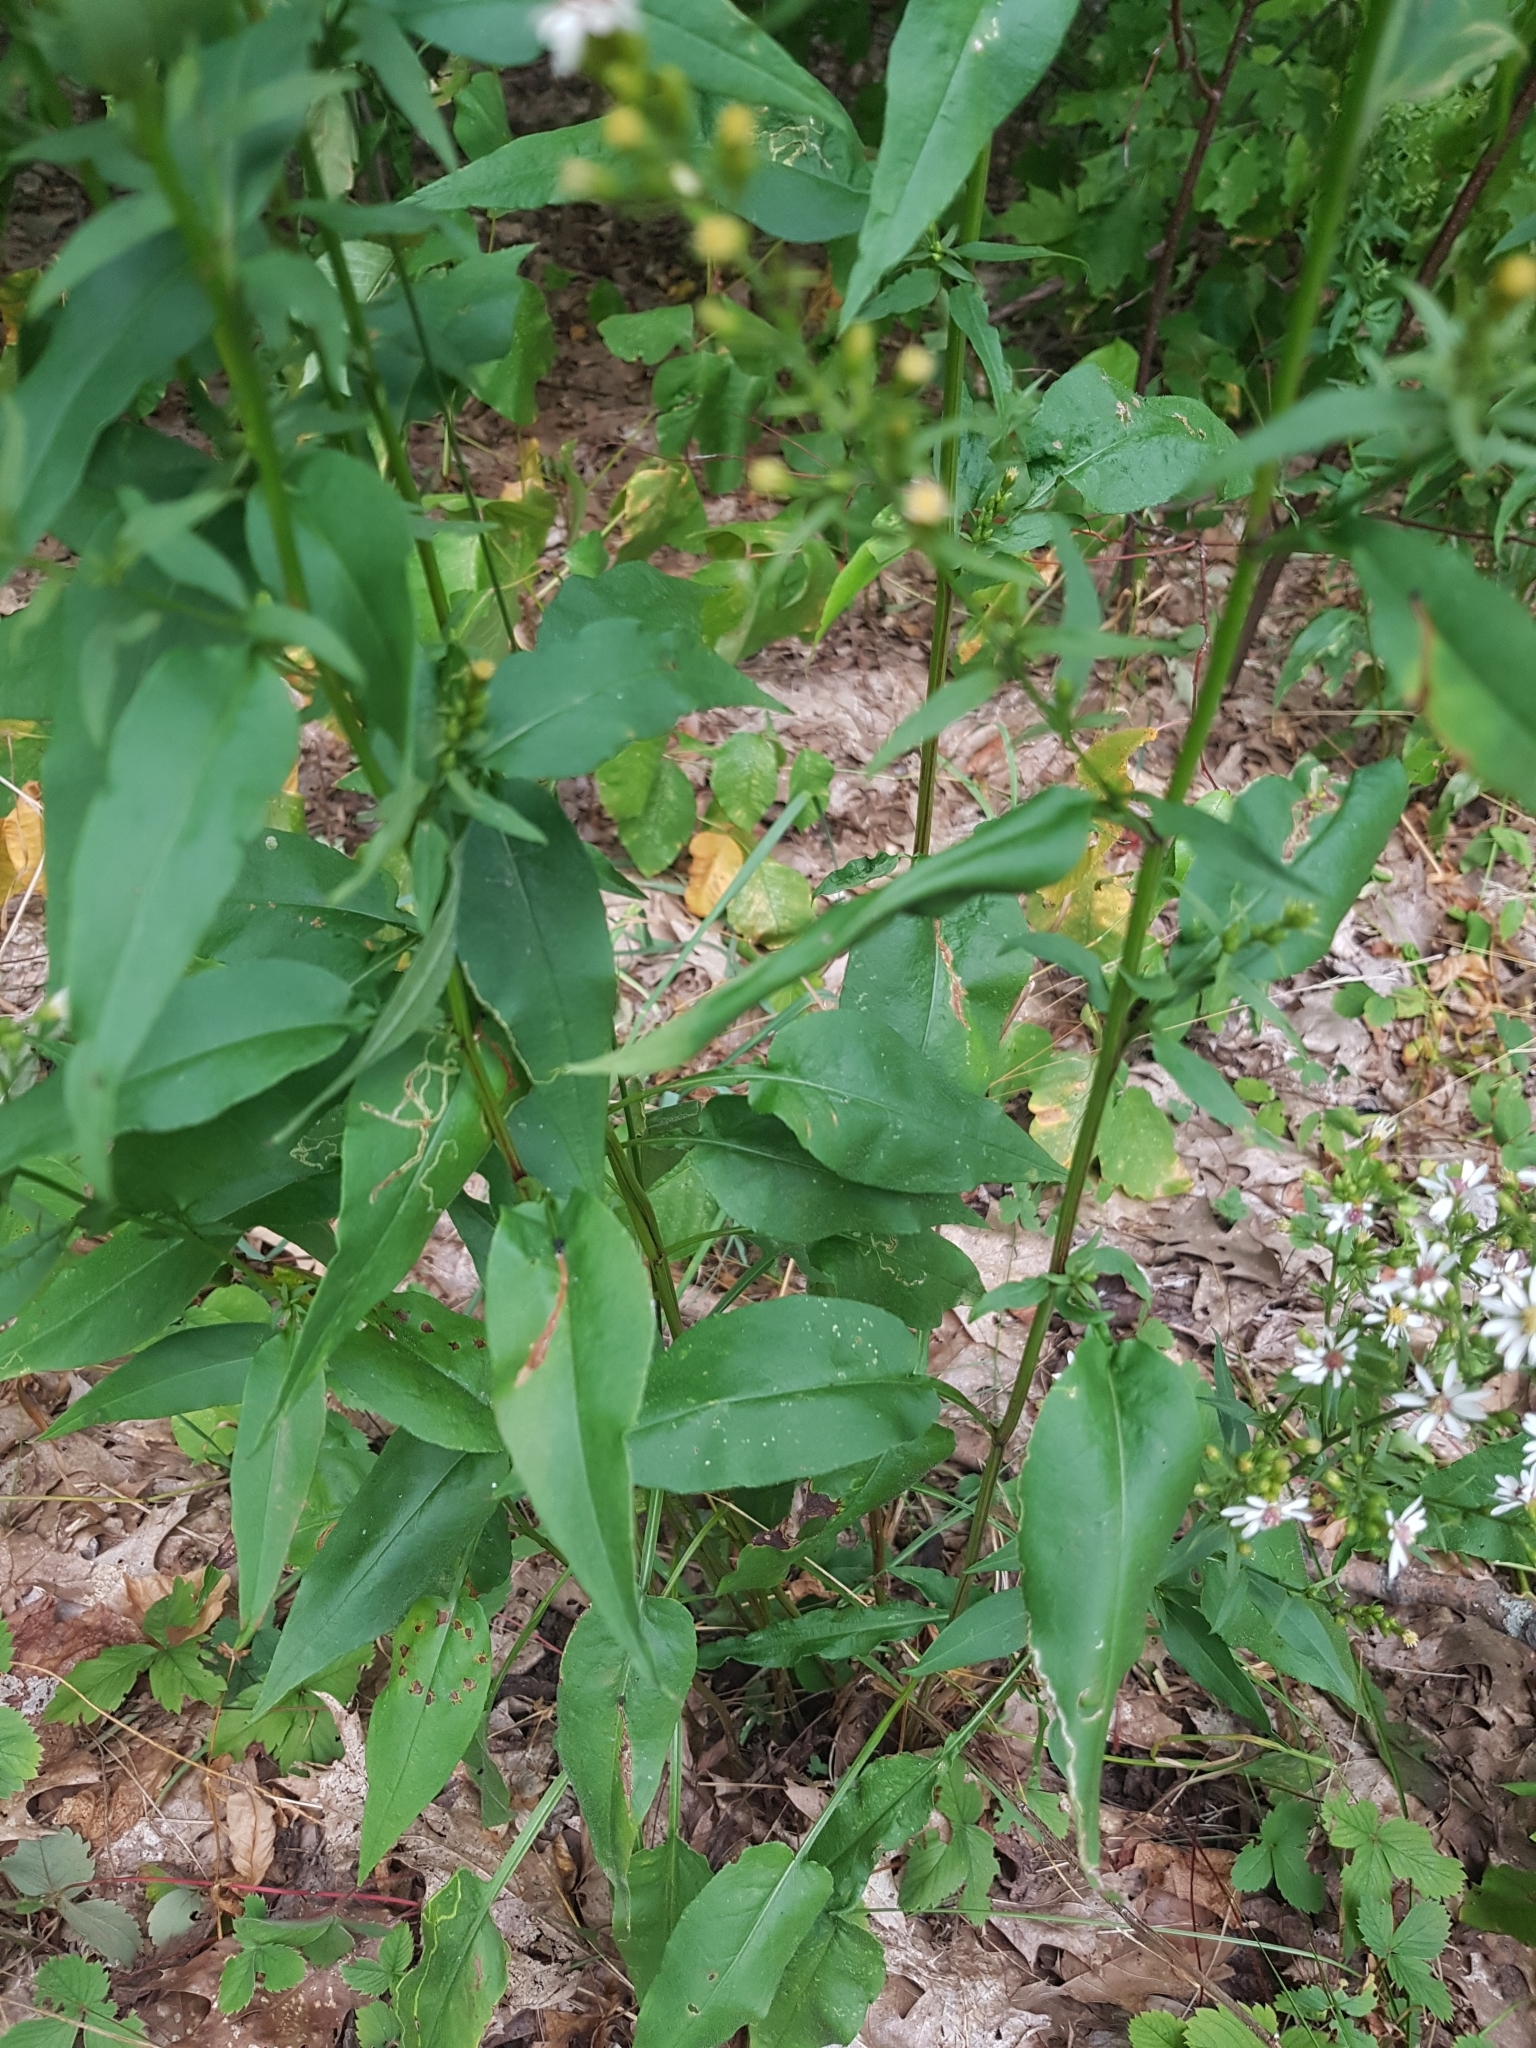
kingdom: Plantae
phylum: Tracheophyta
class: Magnoliopsida
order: Asterales
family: Asteraceae
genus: Symphyotrichum
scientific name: Symphyotrichum urophyllum
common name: Arrow-leaved aster
